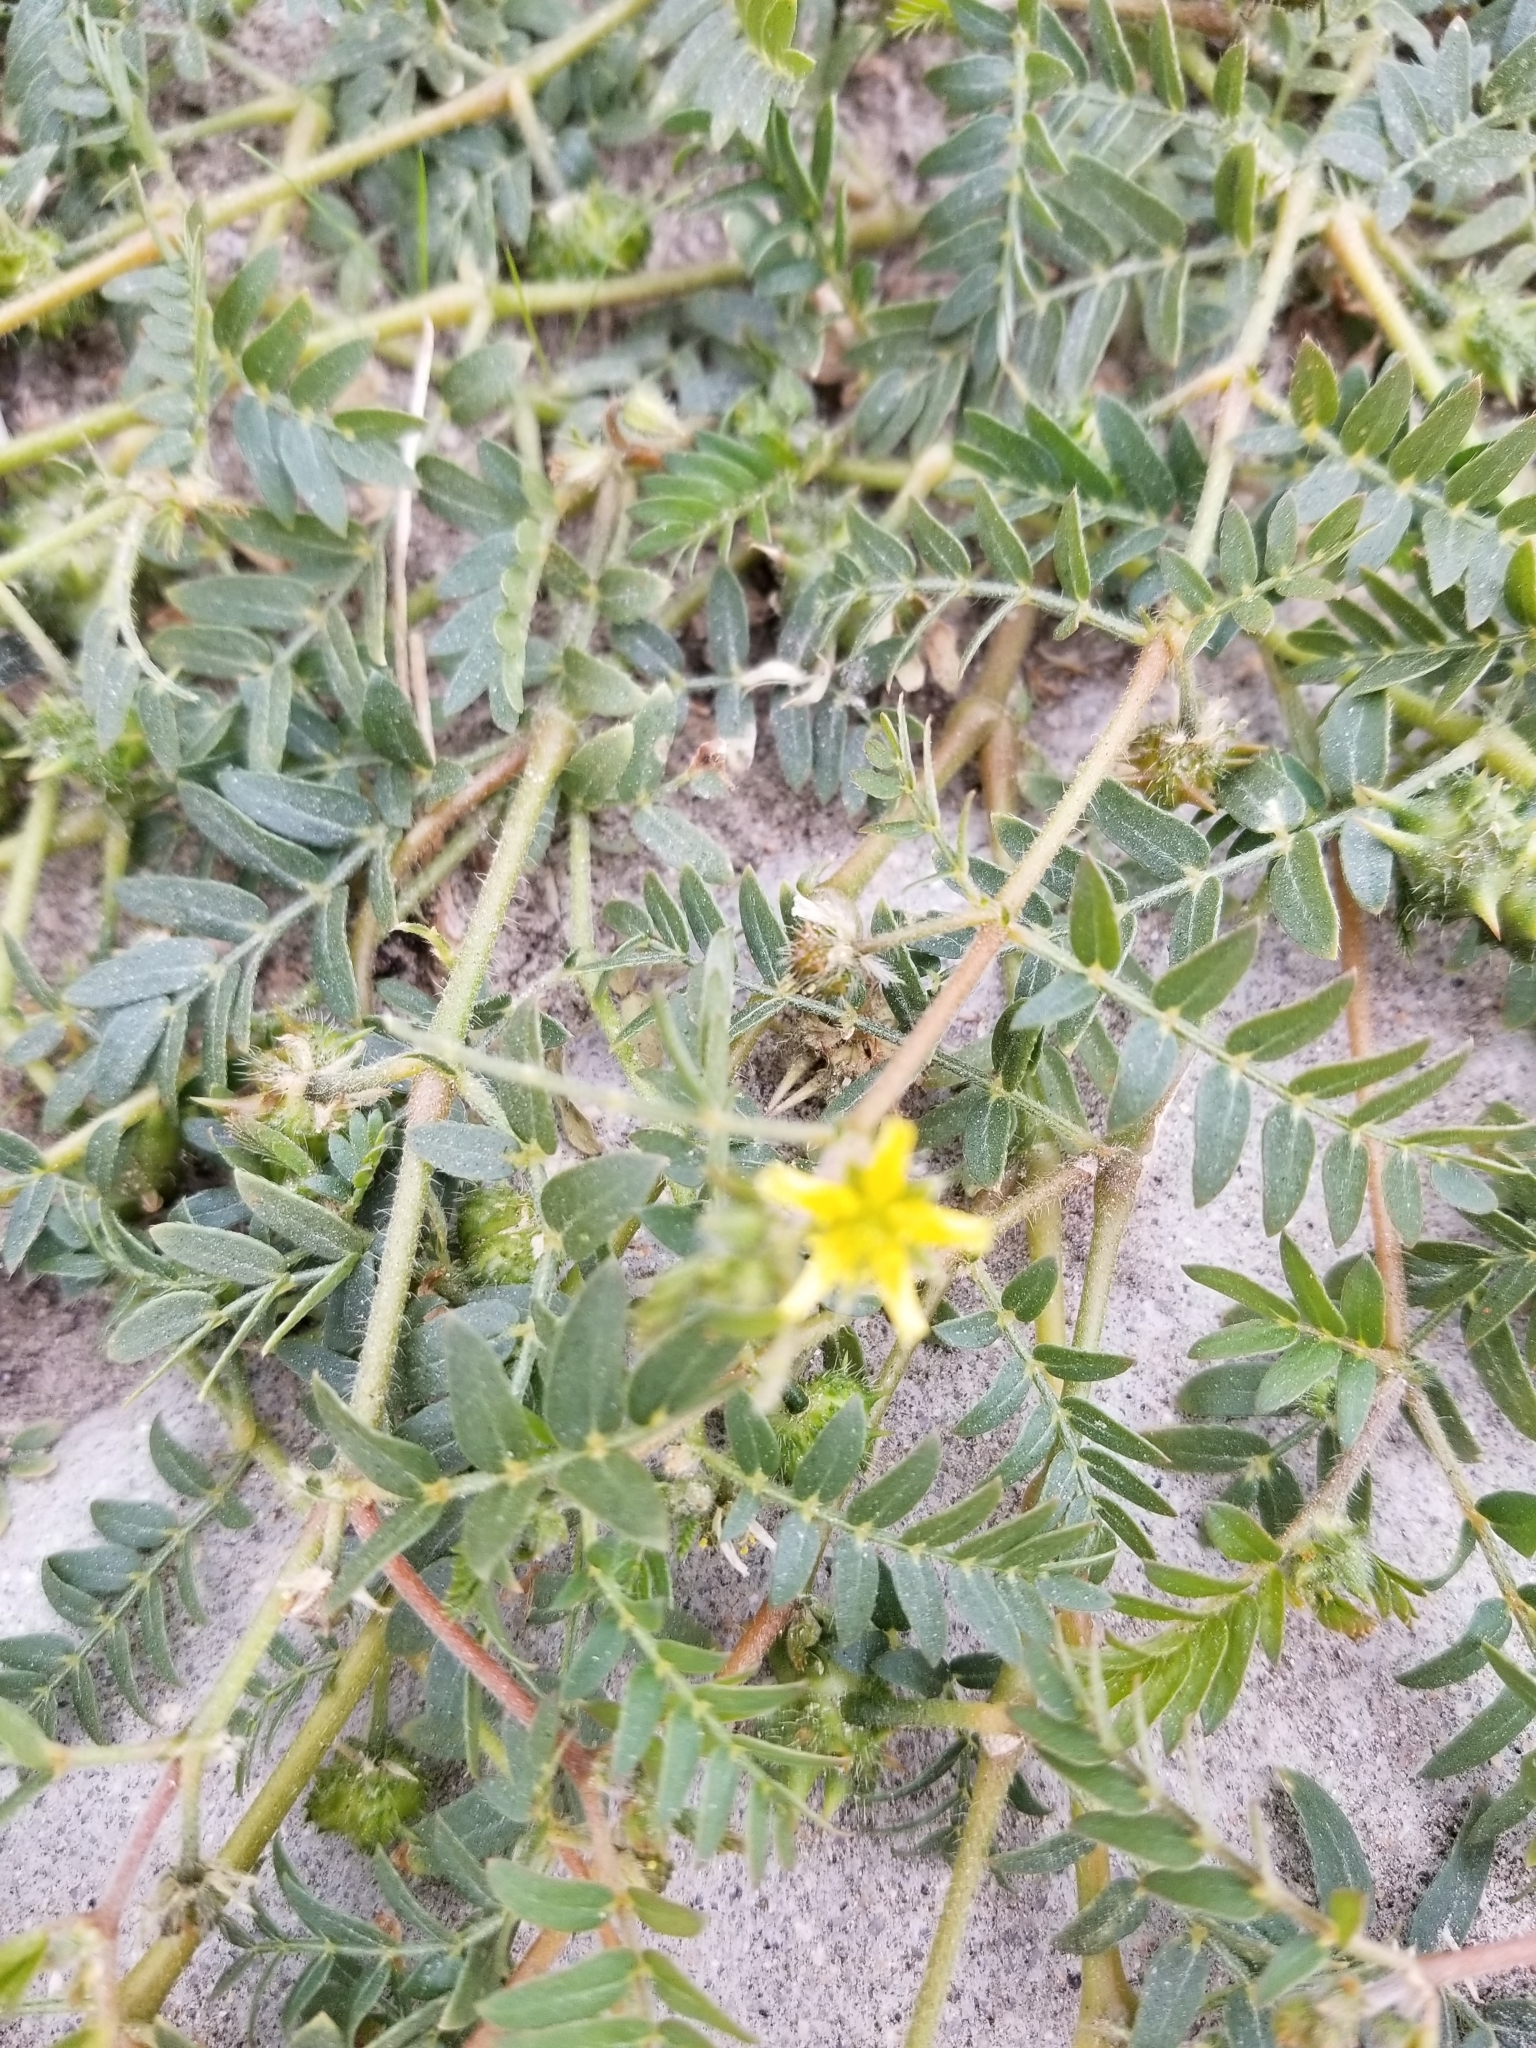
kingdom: Plantae
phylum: Tracheophyta
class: Magnoliopsida
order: Zygophyllales
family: Zygophyllaceae
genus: Tribulus
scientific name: Tribulus terrestris
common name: Puncturevine
